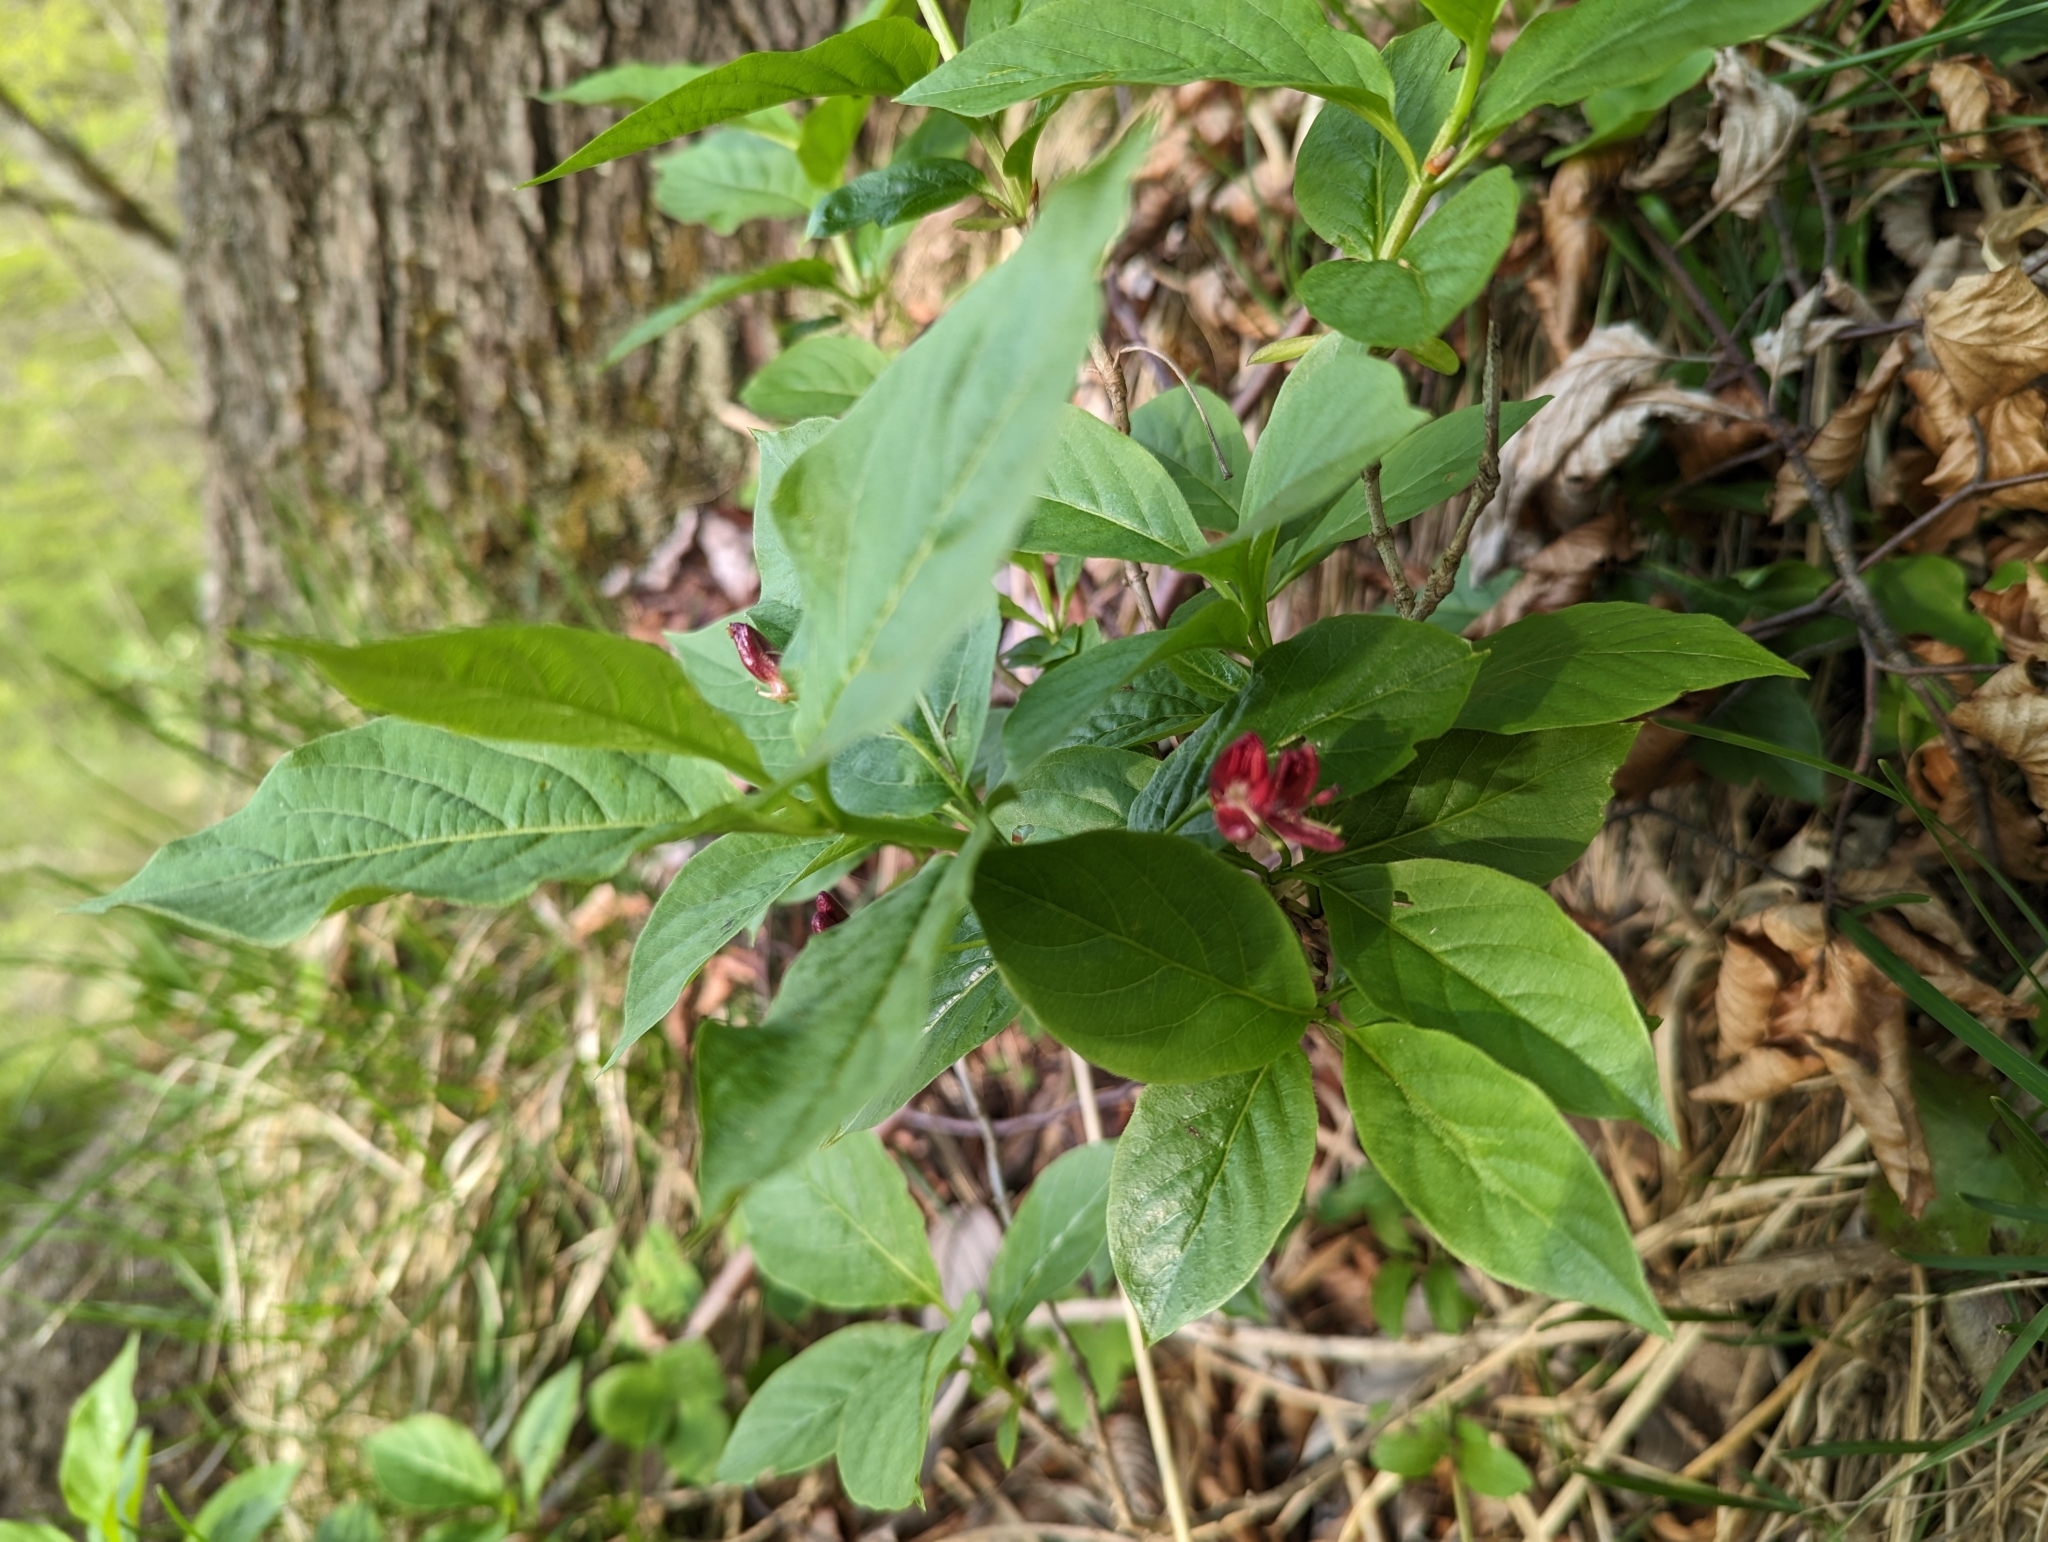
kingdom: Plantae
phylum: Tracheophyta
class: Magnoliopsida
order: Dipsacales
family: Caprifoliaceae
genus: Lonicera
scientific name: Lonicera alpigena
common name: Alpine honeysuckle
